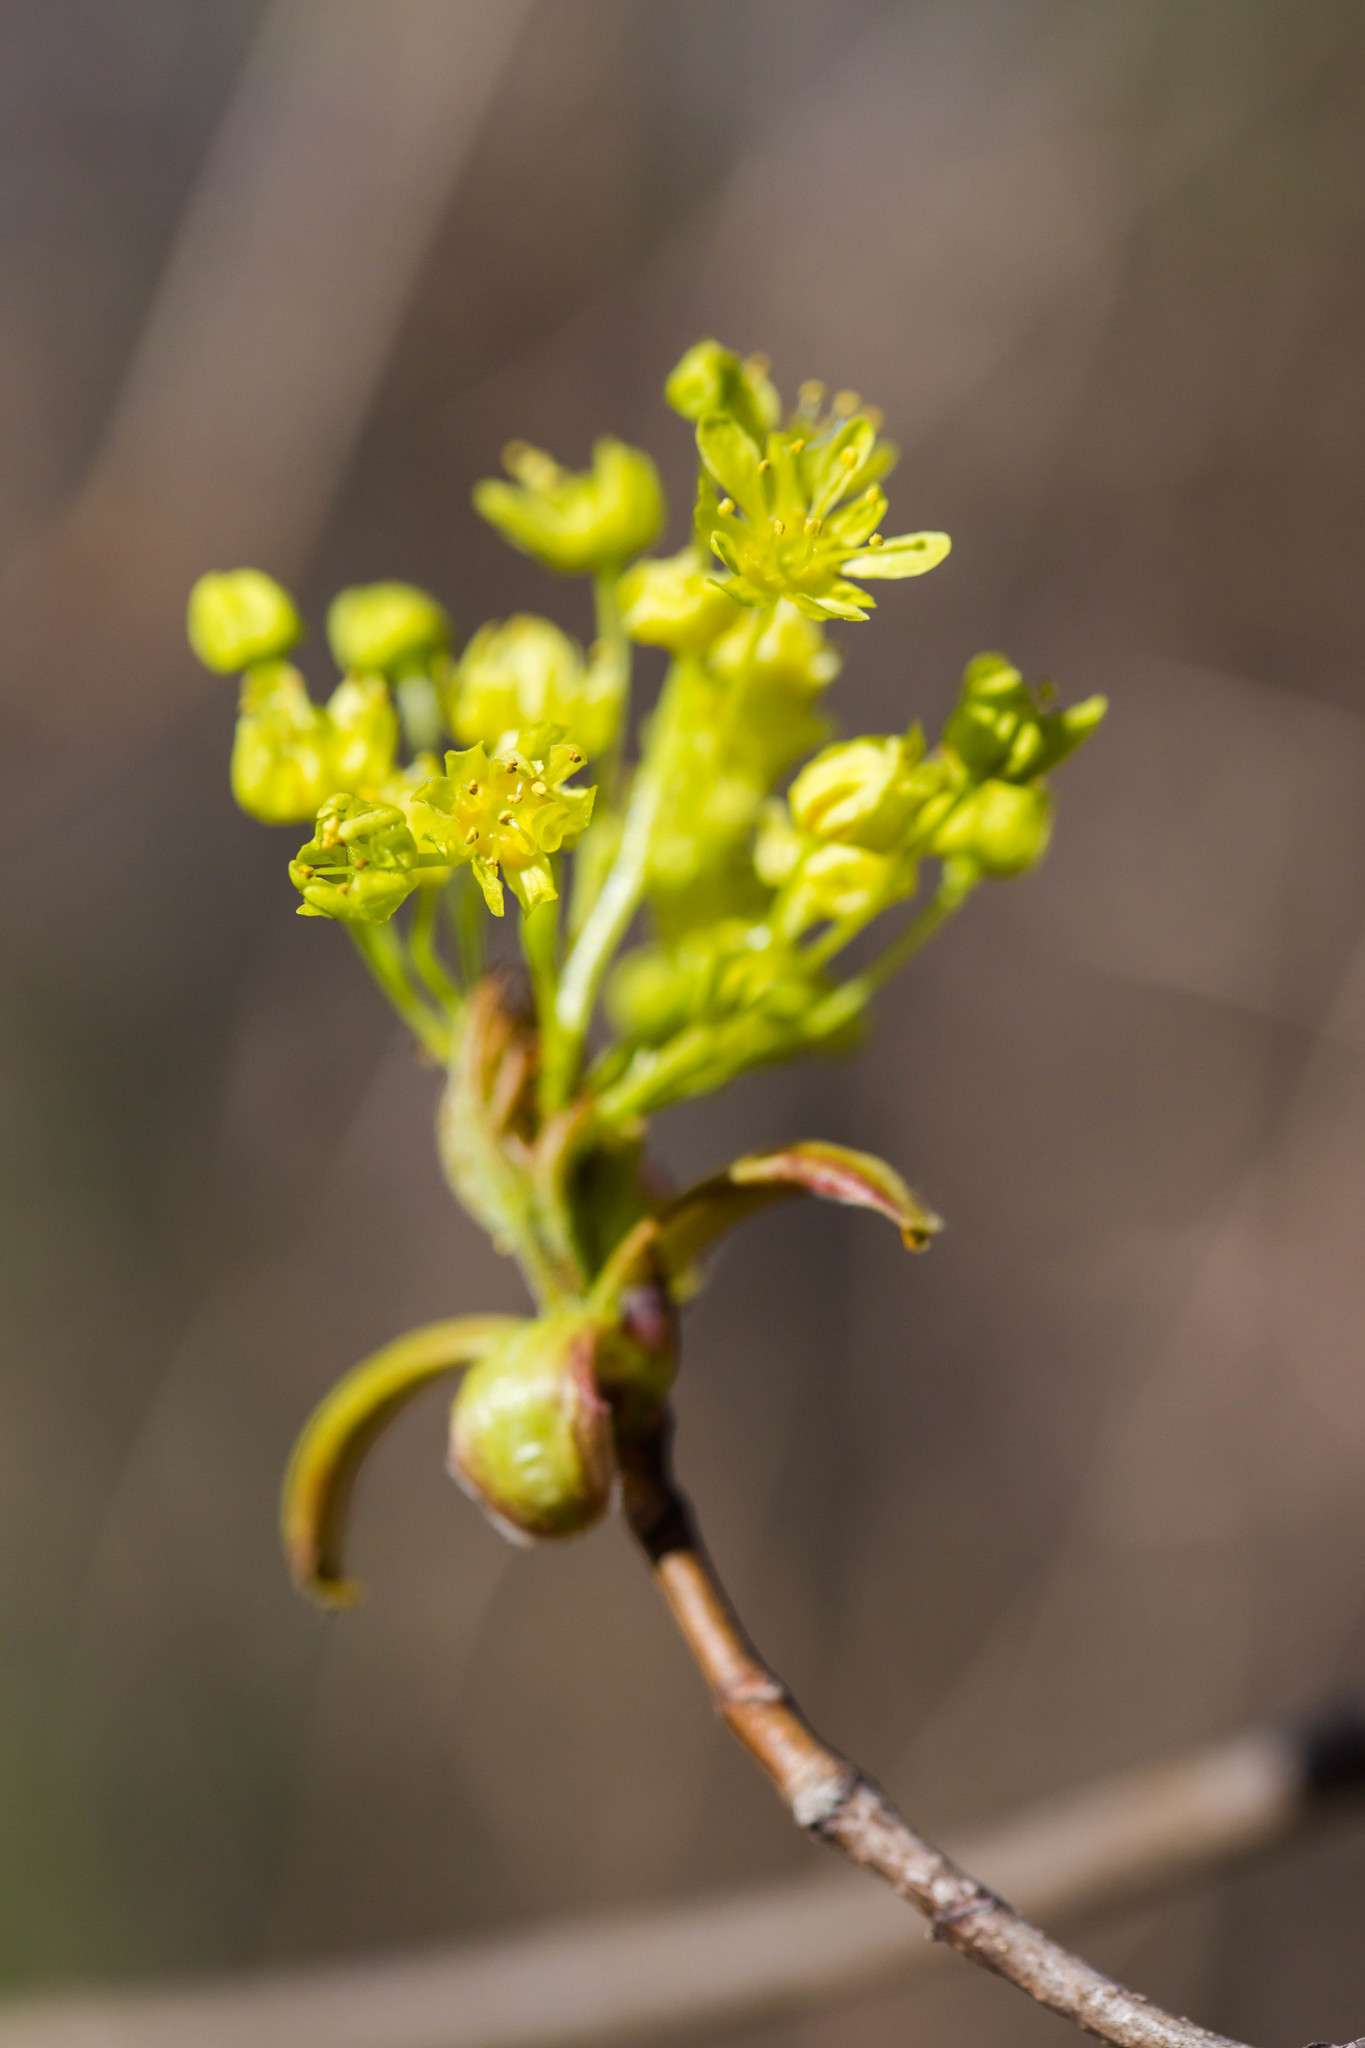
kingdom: Plantae
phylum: Tracheophyta
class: Magnoliopsida
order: Sapindales
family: Sapindaceae
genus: Acer
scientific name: Acer platanoides
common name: Norway maple
